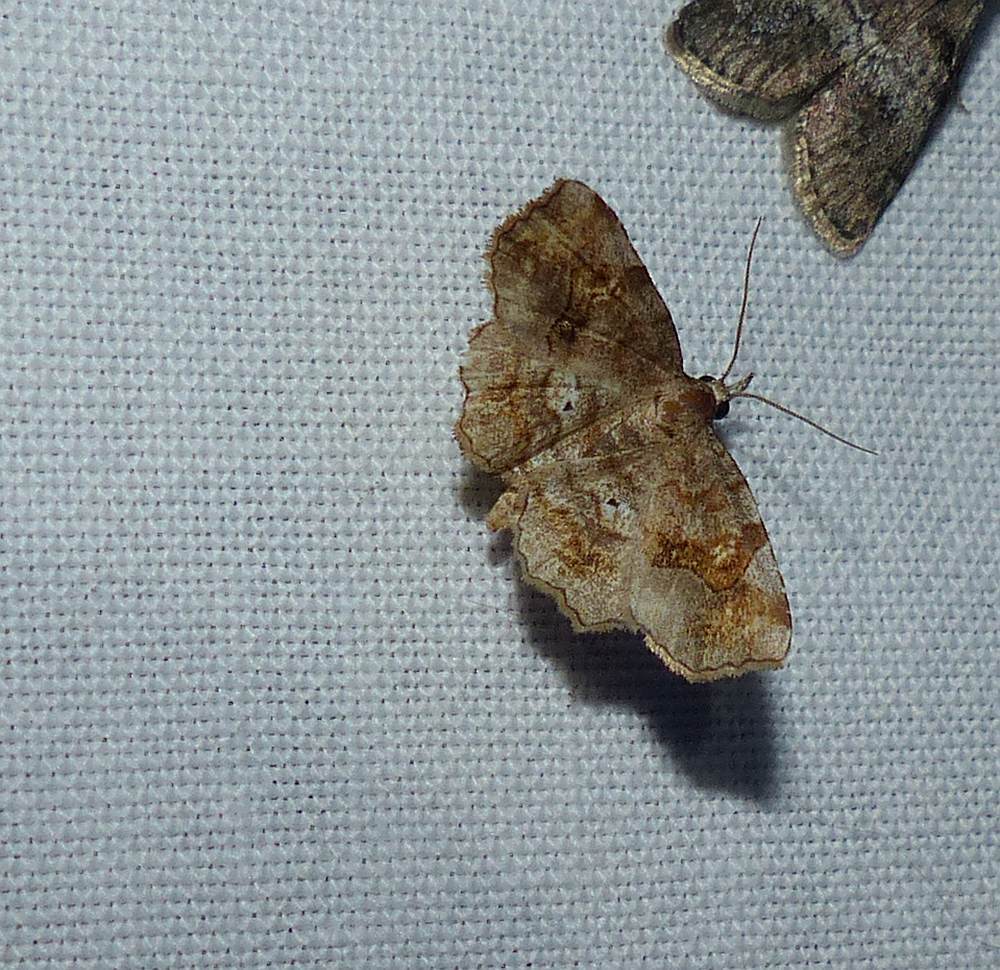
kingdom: Animalia
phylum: Arthropoda
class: Insecta
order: Lepidoptera
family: Erebidae
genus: Pangrapta
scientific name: Pangrapta decoralis
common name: Decorated owlet
